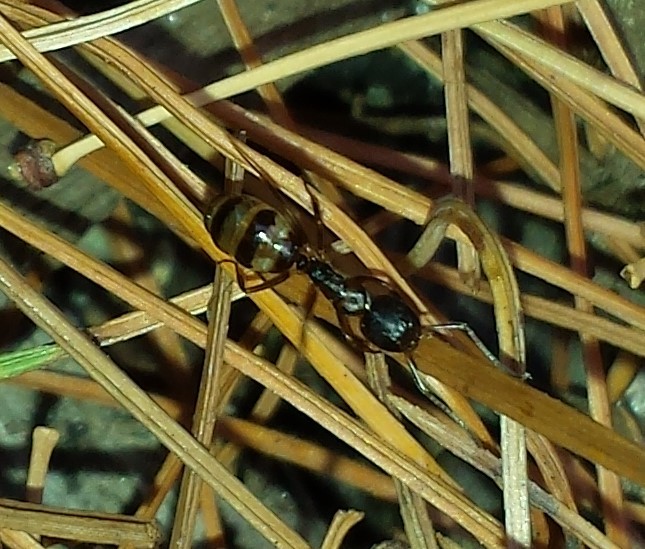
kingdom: Animalia
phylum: Arthropoda
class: Insecta
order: Hymenoptera
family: Formicidae
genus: Camponotus
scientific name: Camponotus subbarbatus
